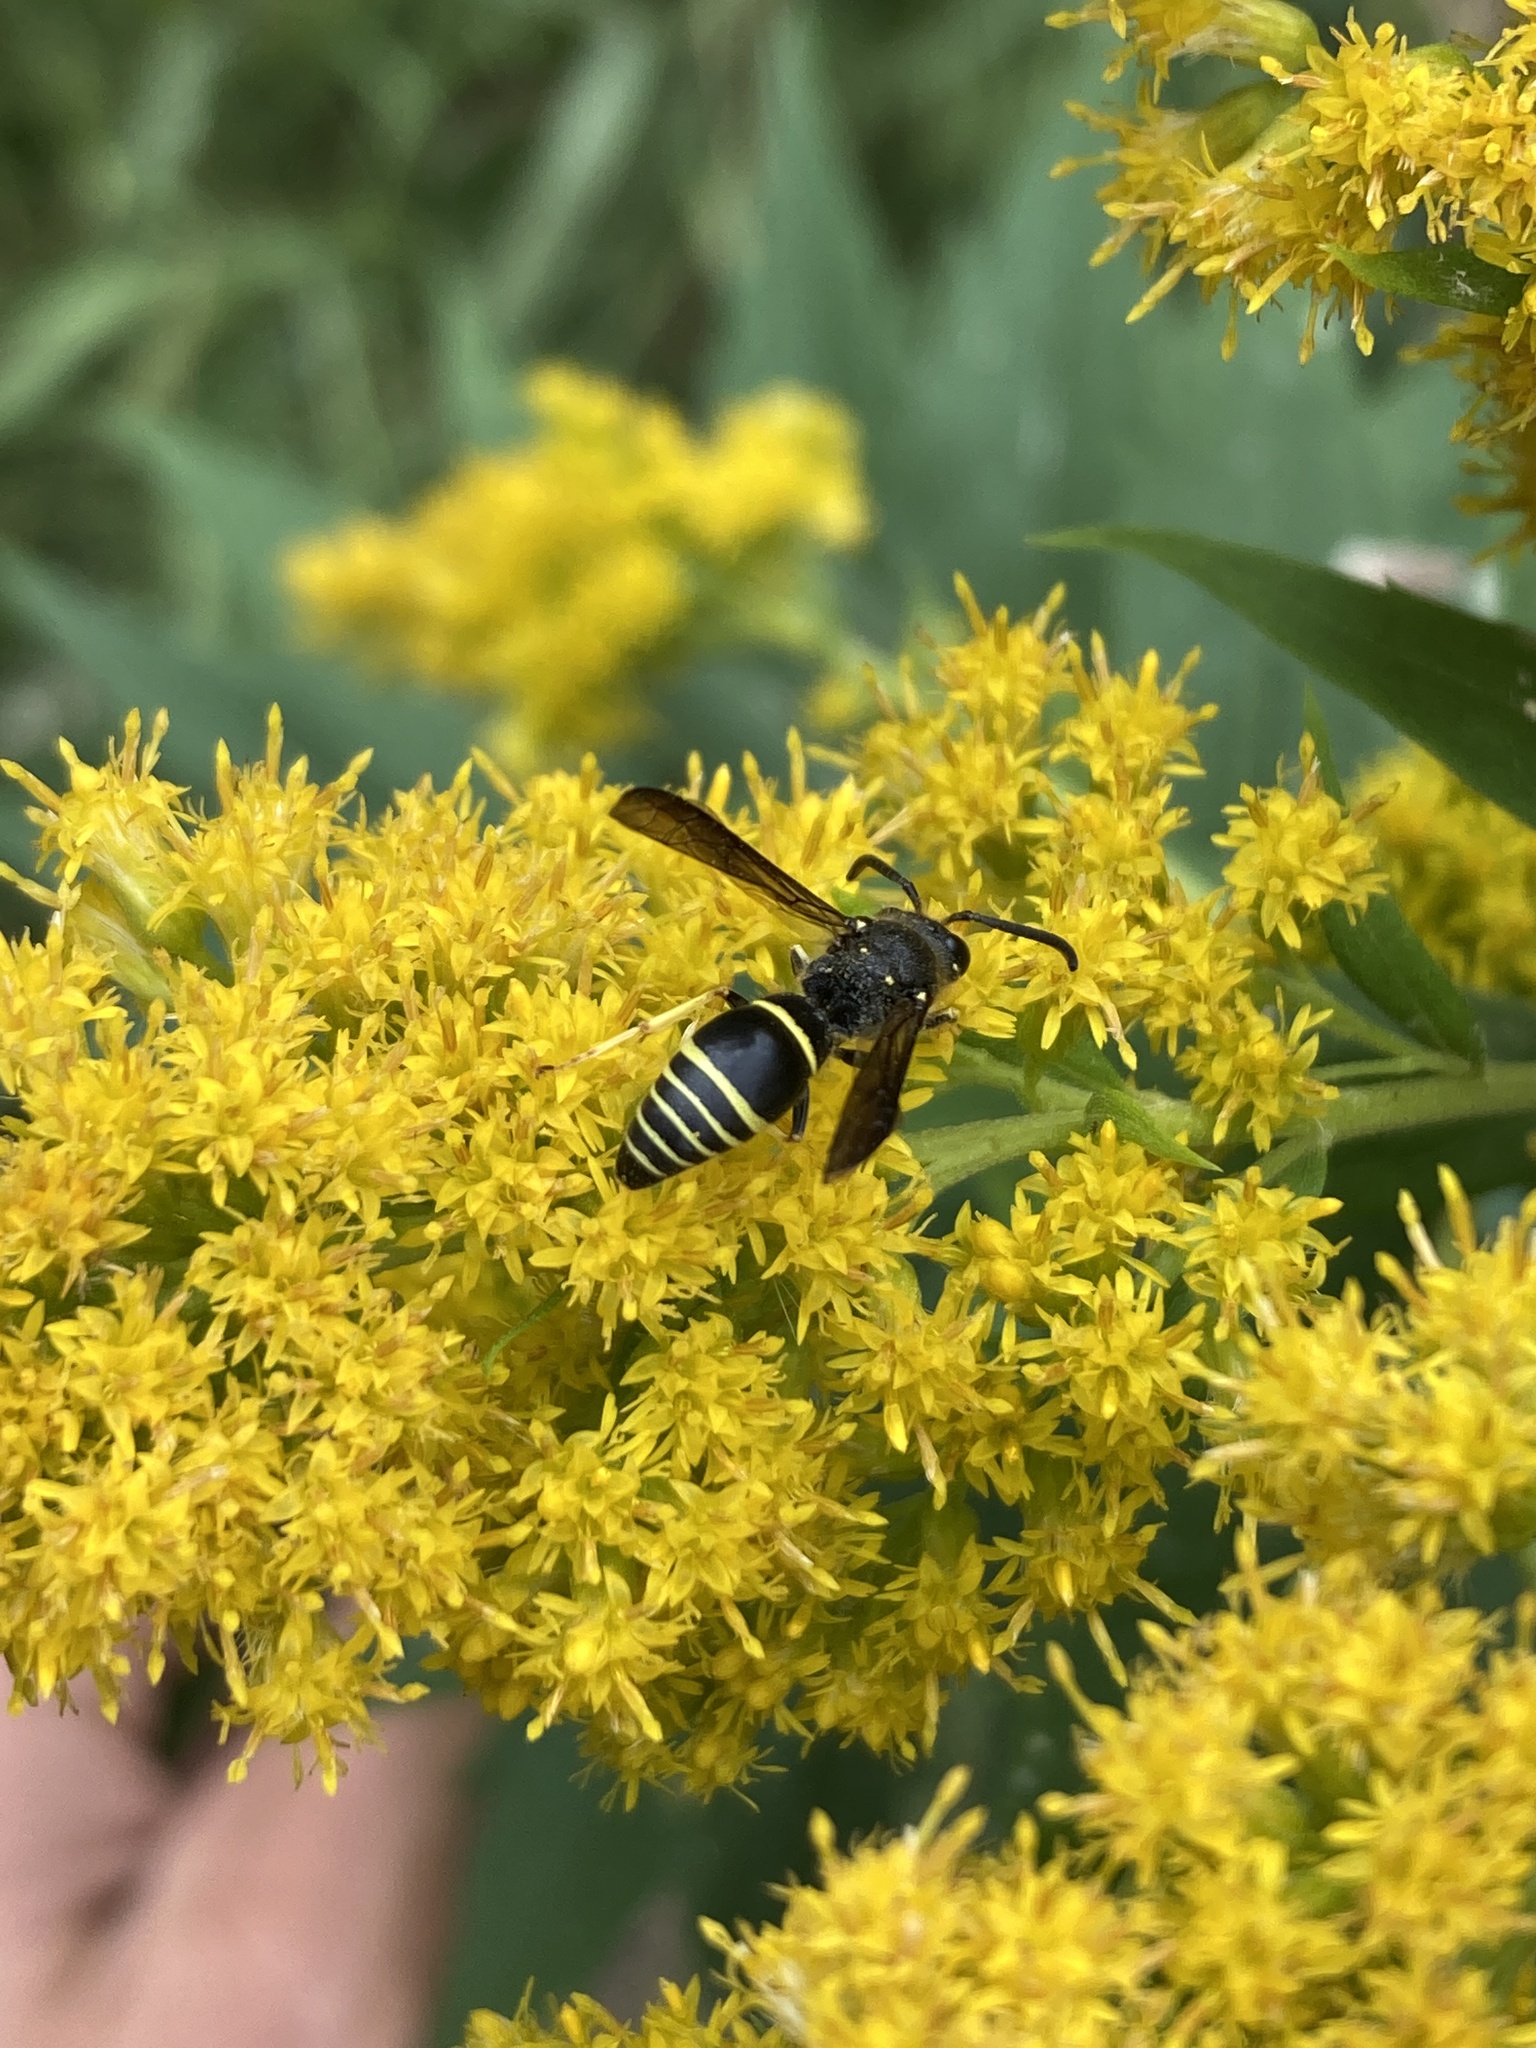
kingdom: Animalia
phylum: Arthropoda
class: Insecta
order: Hymenoptera
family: Vespidae
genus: Ancistrocerus
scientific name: Ancistrocerus
